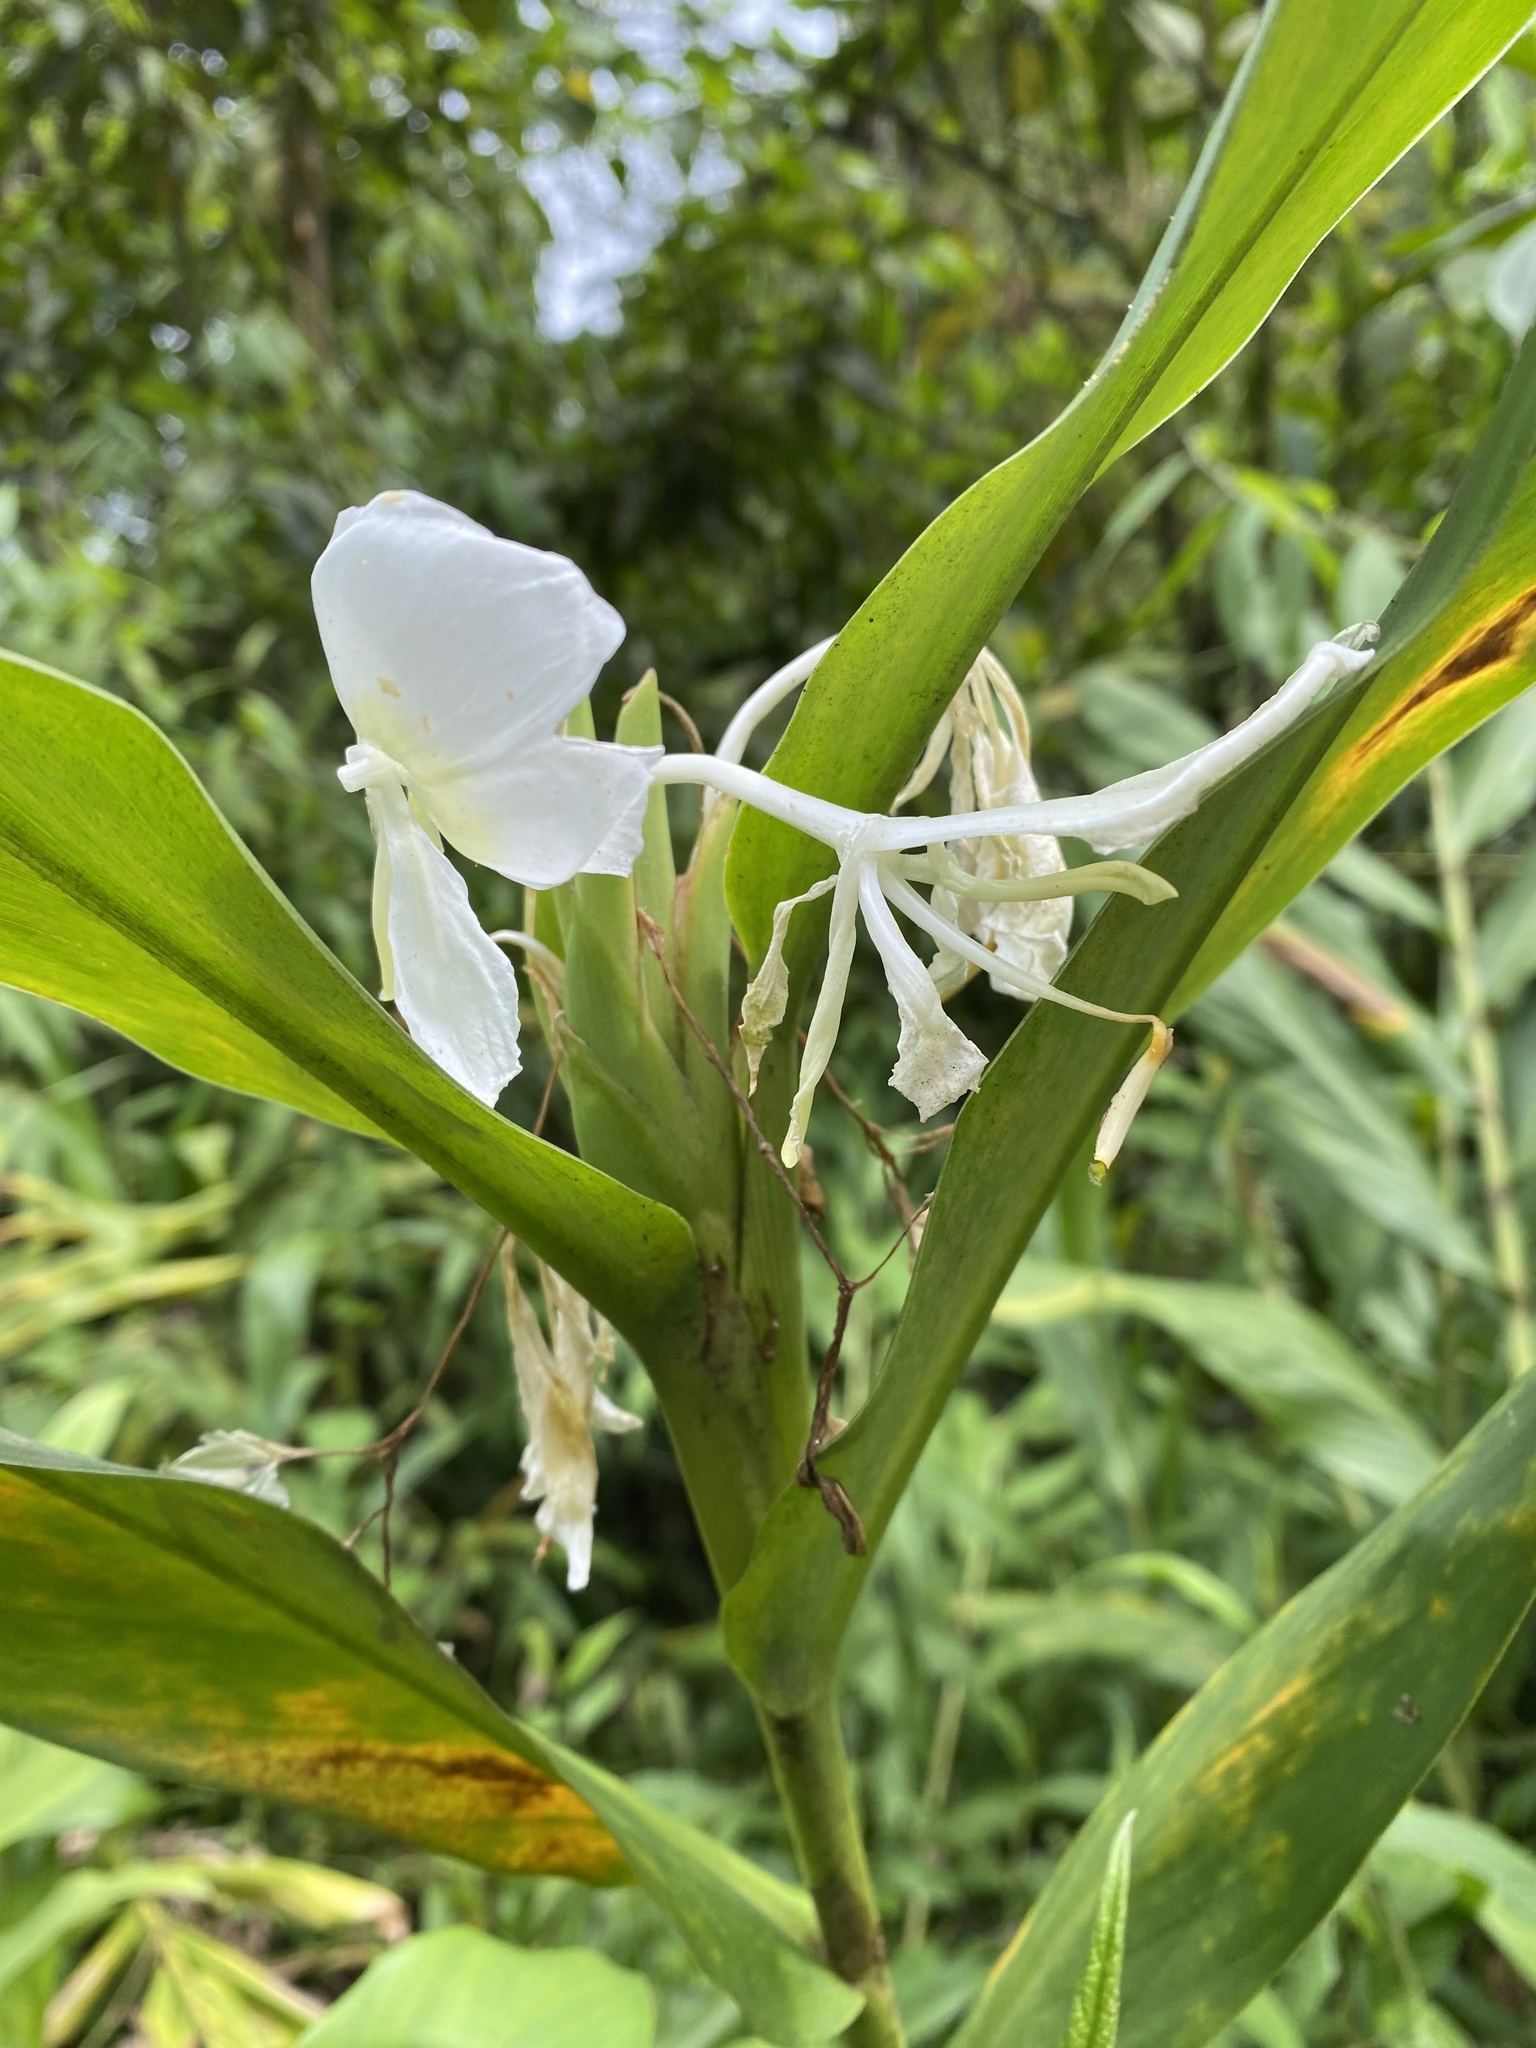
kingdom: Plantae
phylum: Tracheophyta
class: Liliopsida
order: Zingiberales
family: Zingiberaceae
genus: Hedychium
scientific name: Hedychium coronarium
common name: White garland-lily
